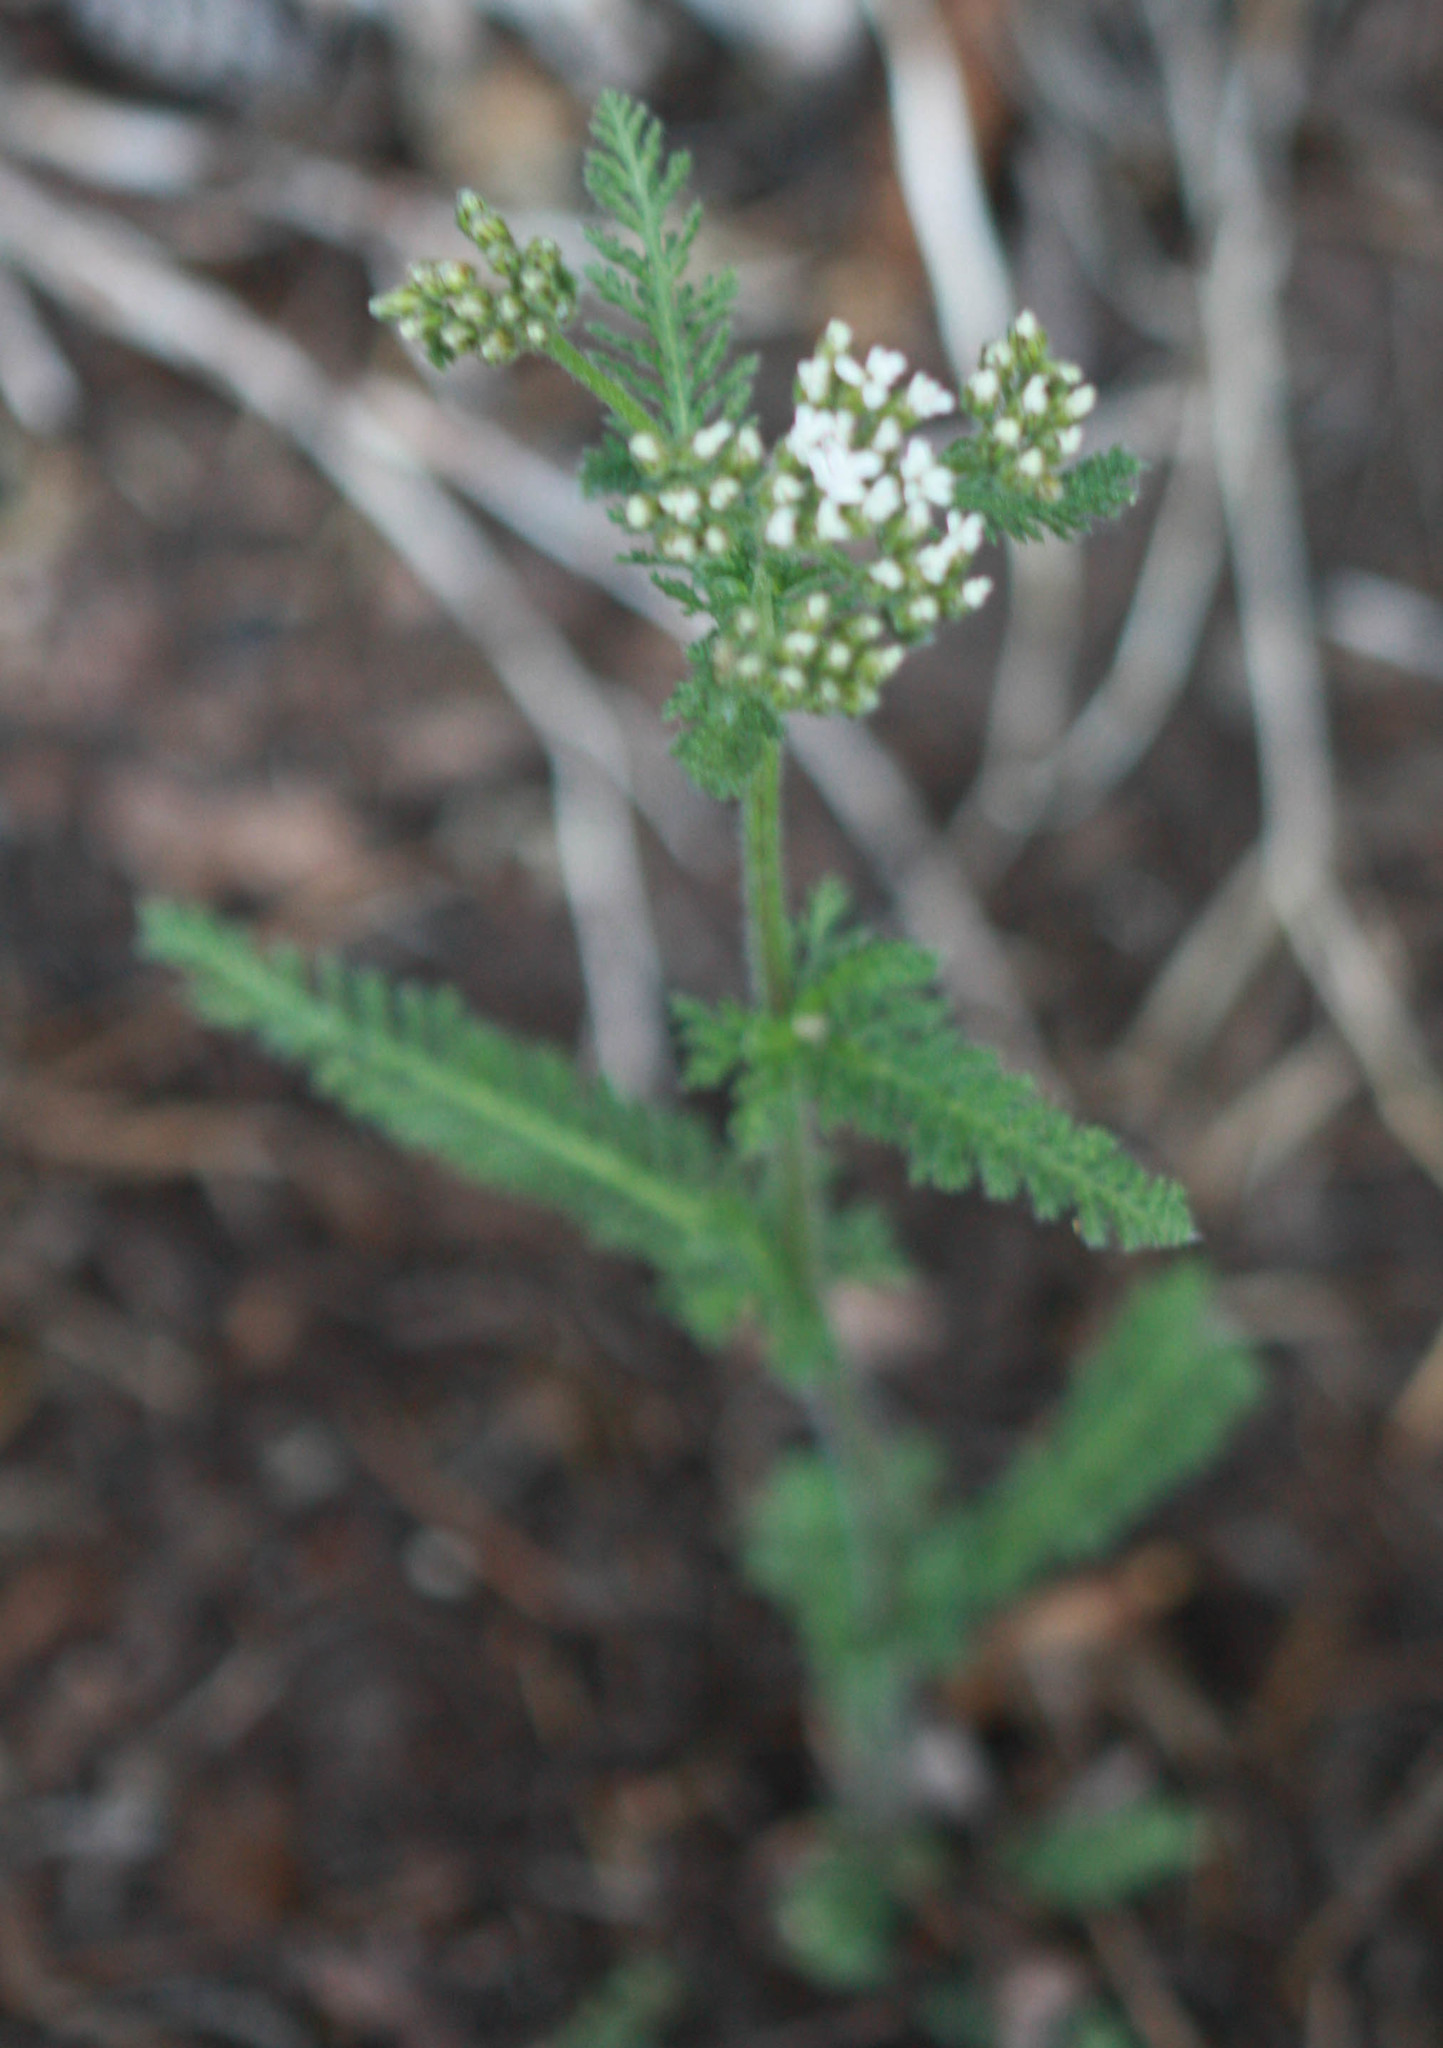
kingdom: Plantae
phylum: Tracheophyta
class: Magnoliopsida
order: Asterales
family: Asteraceae
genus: Achillea
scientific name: Achillea millefolium
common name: Yarrow
